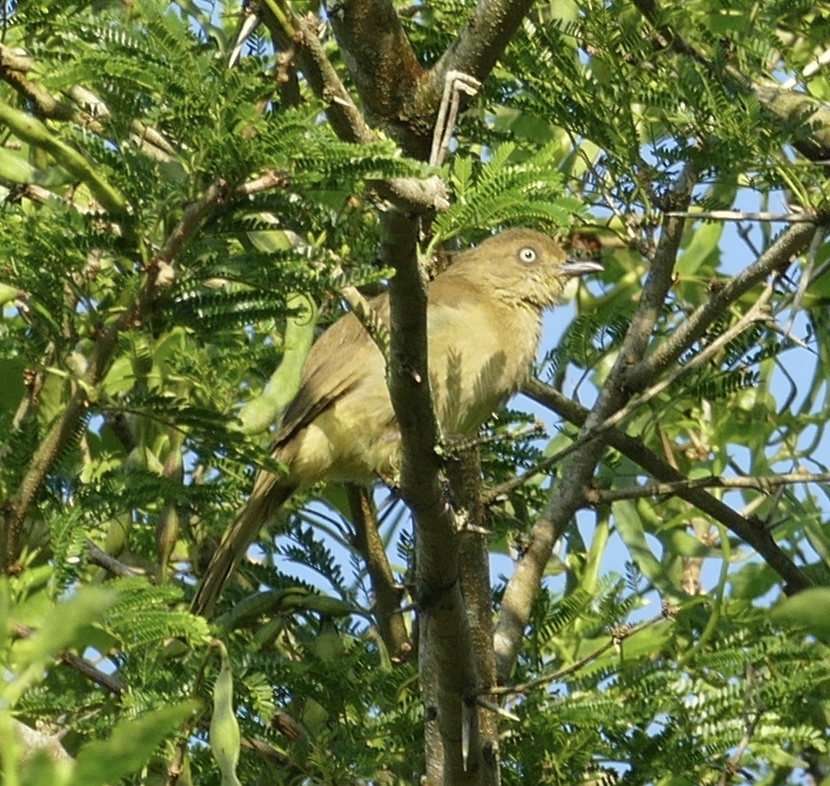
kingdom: Animalia
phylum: Chordata
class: Aves
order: Passeriformes
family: Pycnonotidae
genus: Andropadus
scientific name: Andropadus importunus
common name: Sombre greenbul
